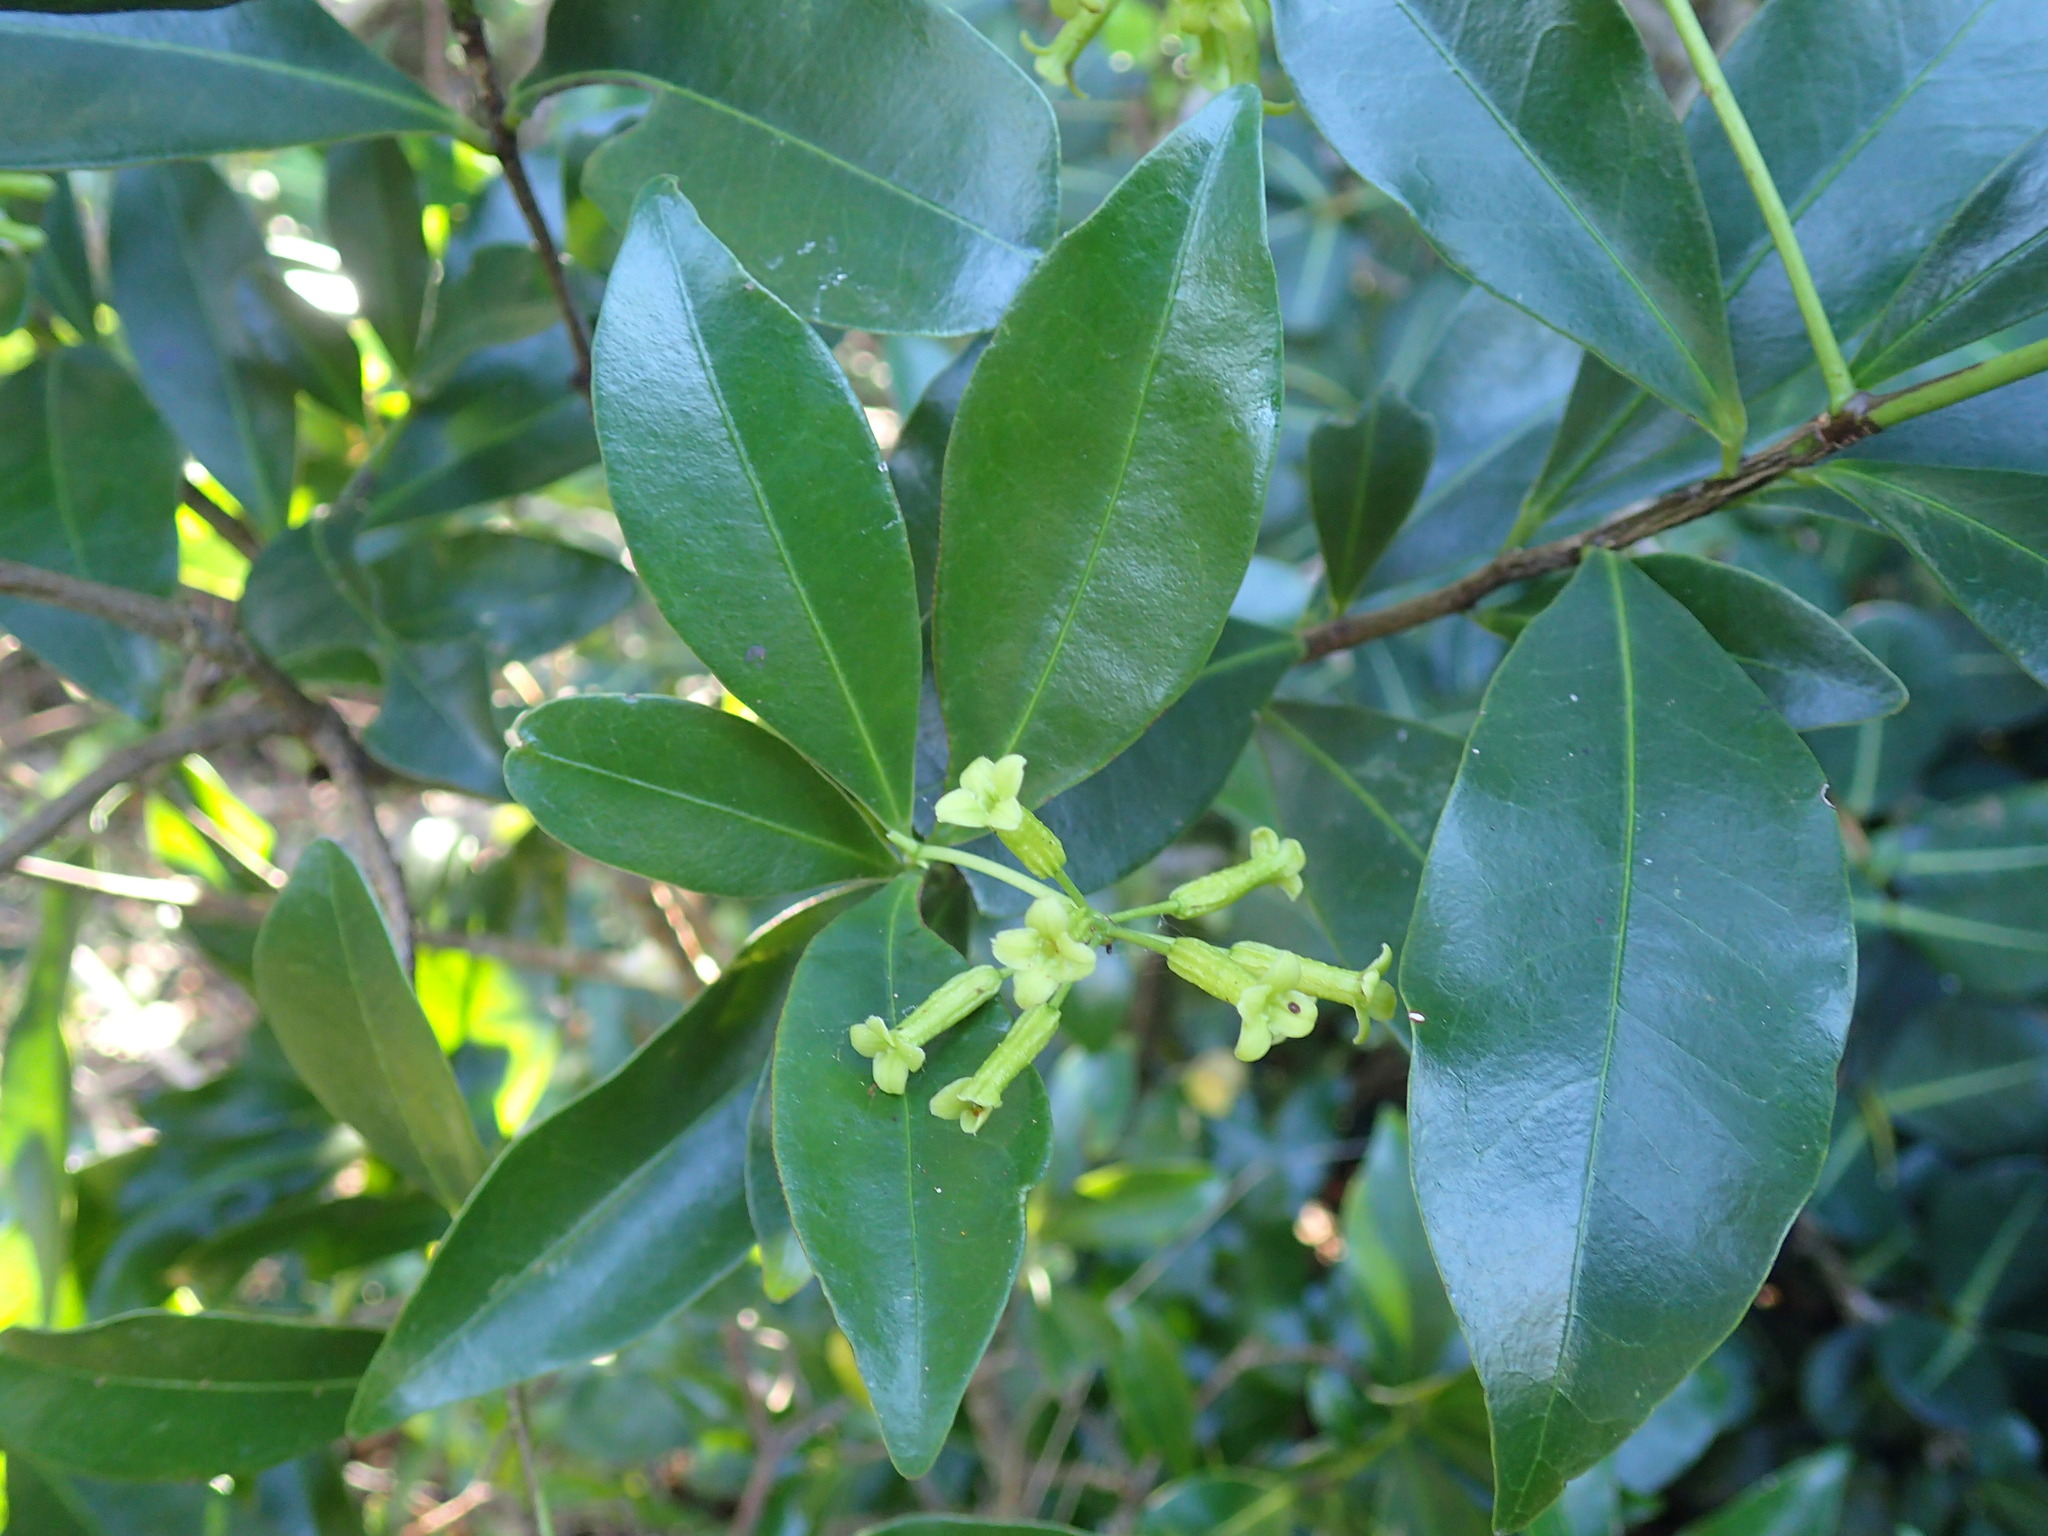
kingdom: Plantae
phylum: Tracheophyta
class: Magnoliopsida
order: Malvales
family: Thymelaeaceae
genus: Peddiea
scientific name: Peddiea africana
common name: Poison olive
